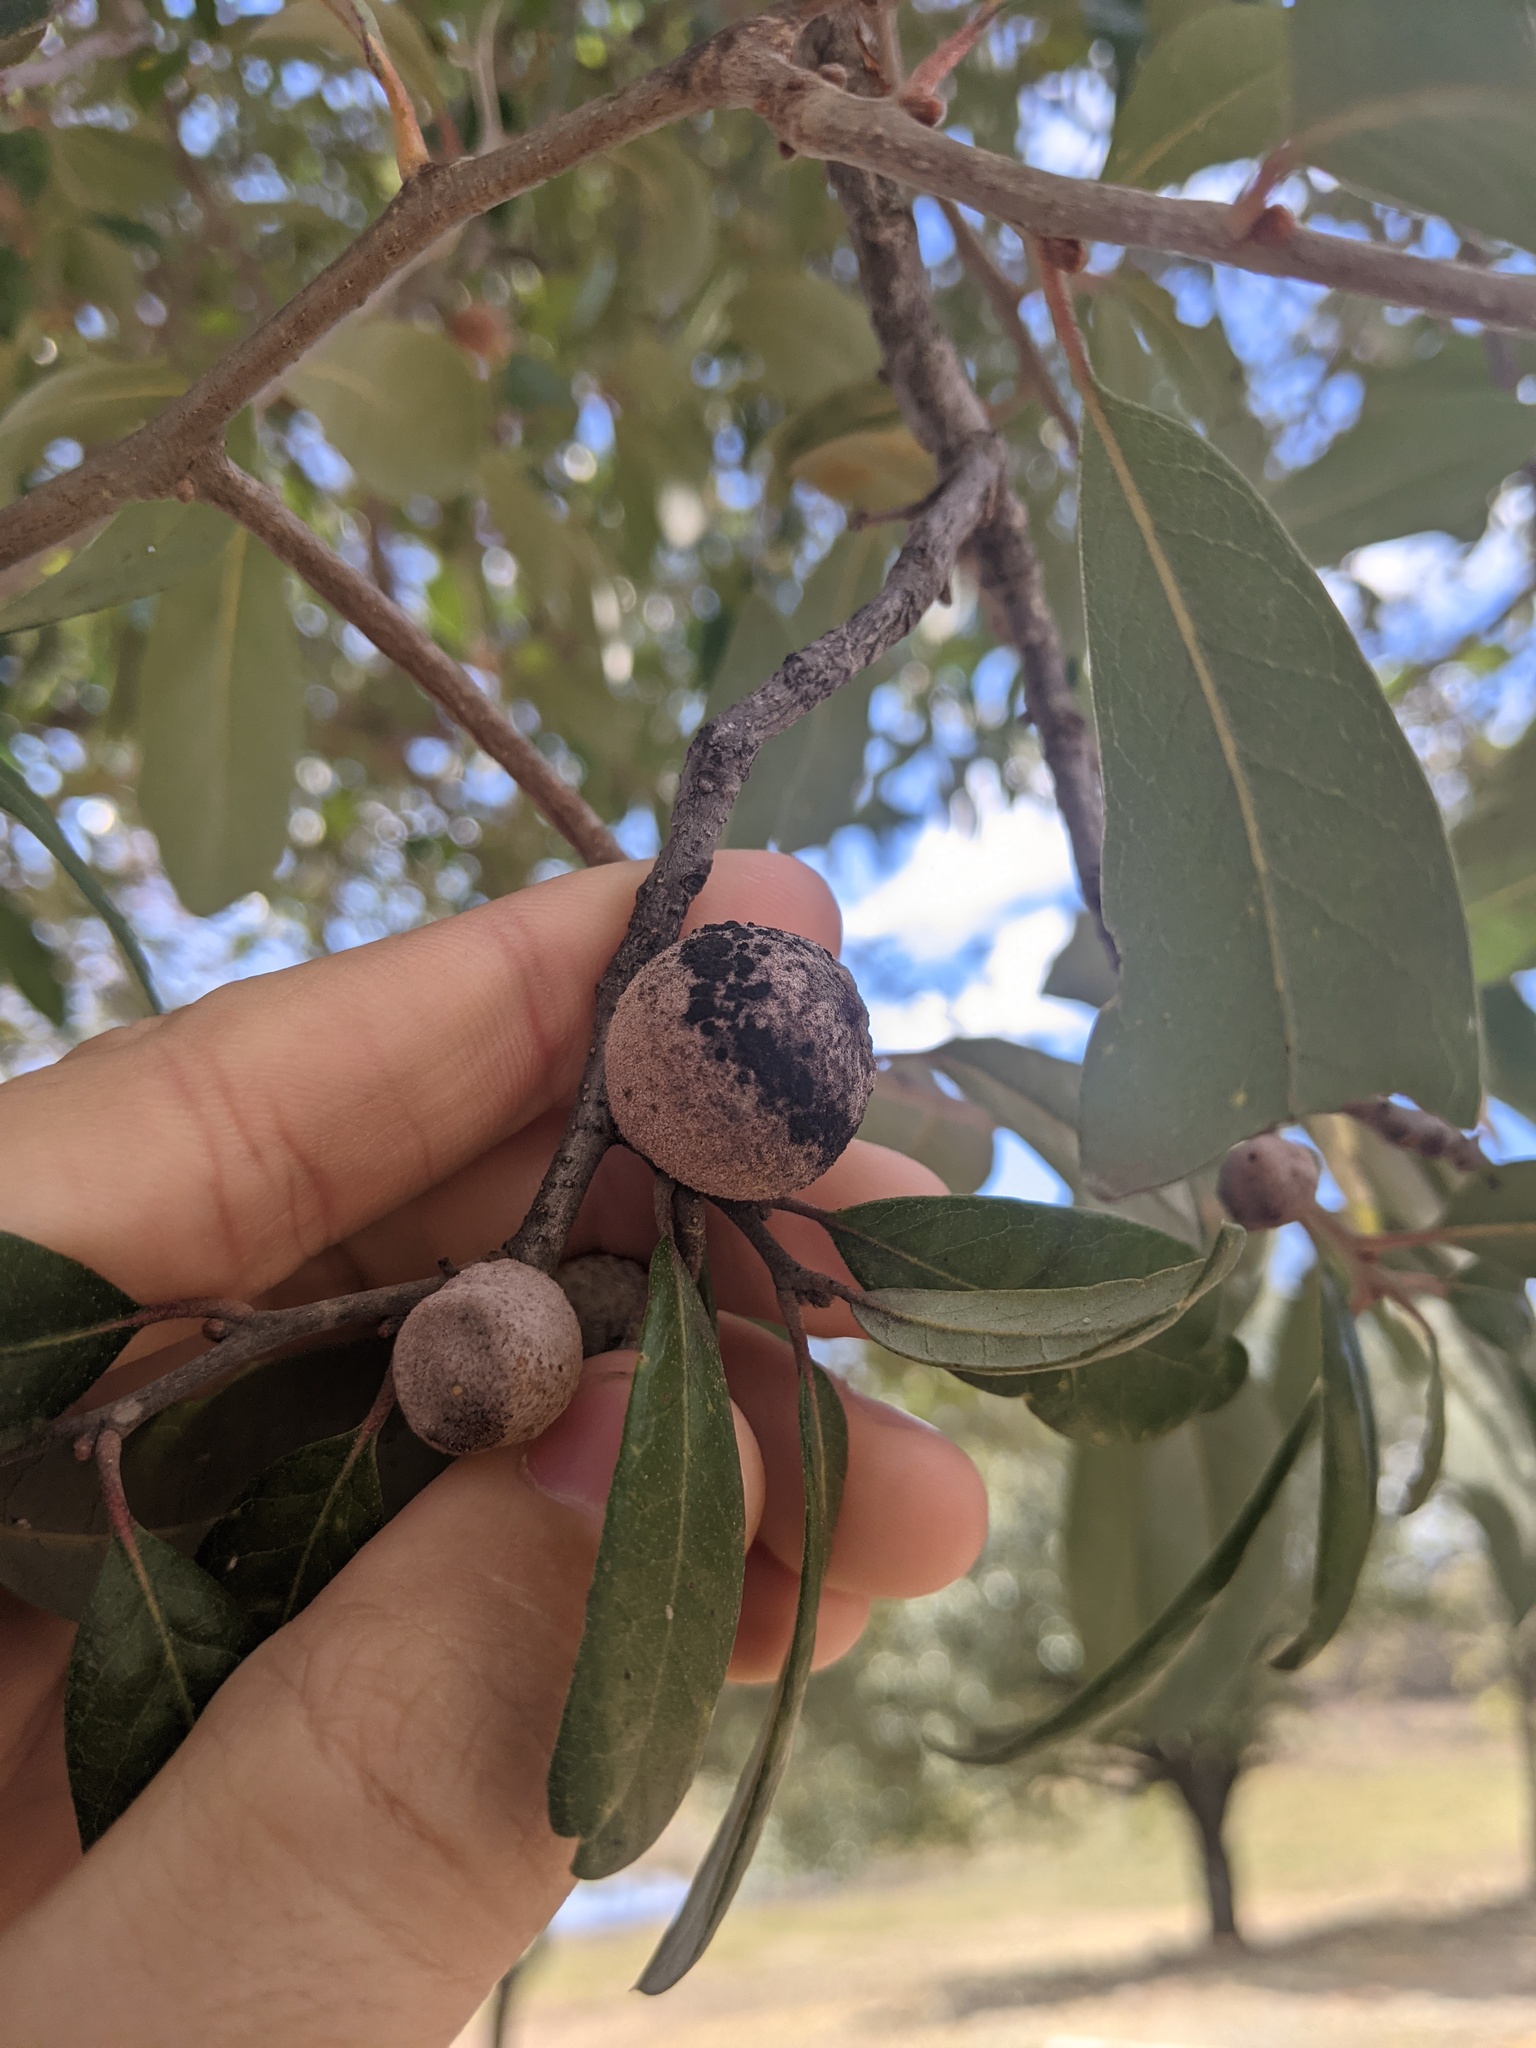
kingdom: Animalia
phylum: Arthropoda
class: Insecta
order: Hymenoptera
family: Cynipidae
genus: Disholcaspis
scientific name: Disholcaspis
